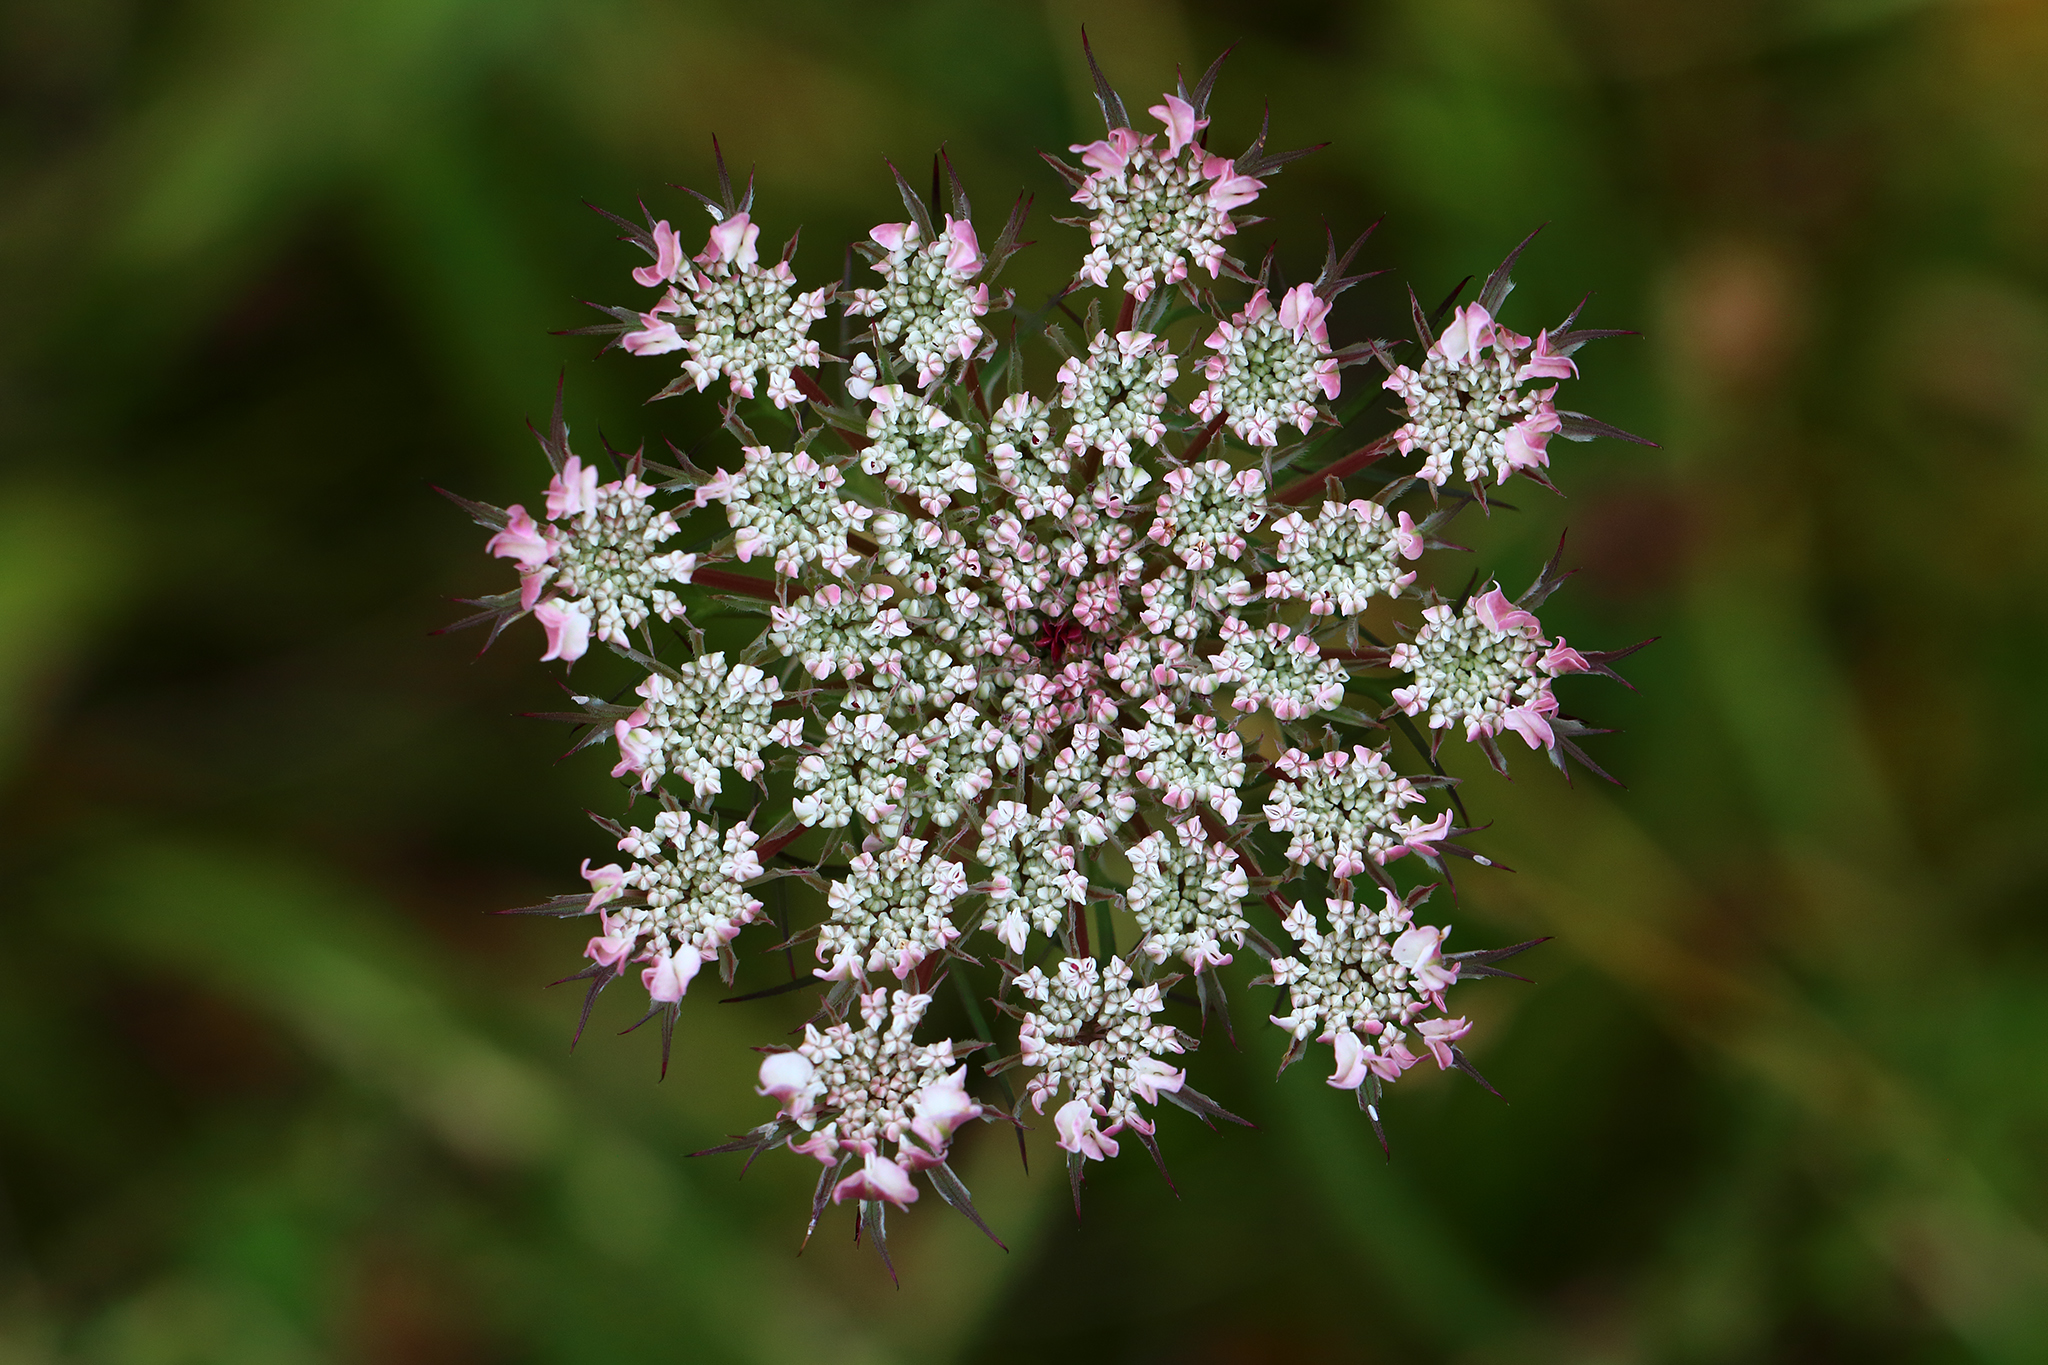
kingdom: Plantae
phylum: Tracheophyta
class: Magnoliopsida
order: Apiales
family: Apiaceae
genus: Daucus
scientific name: Daucus carota
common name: Wild carrot
